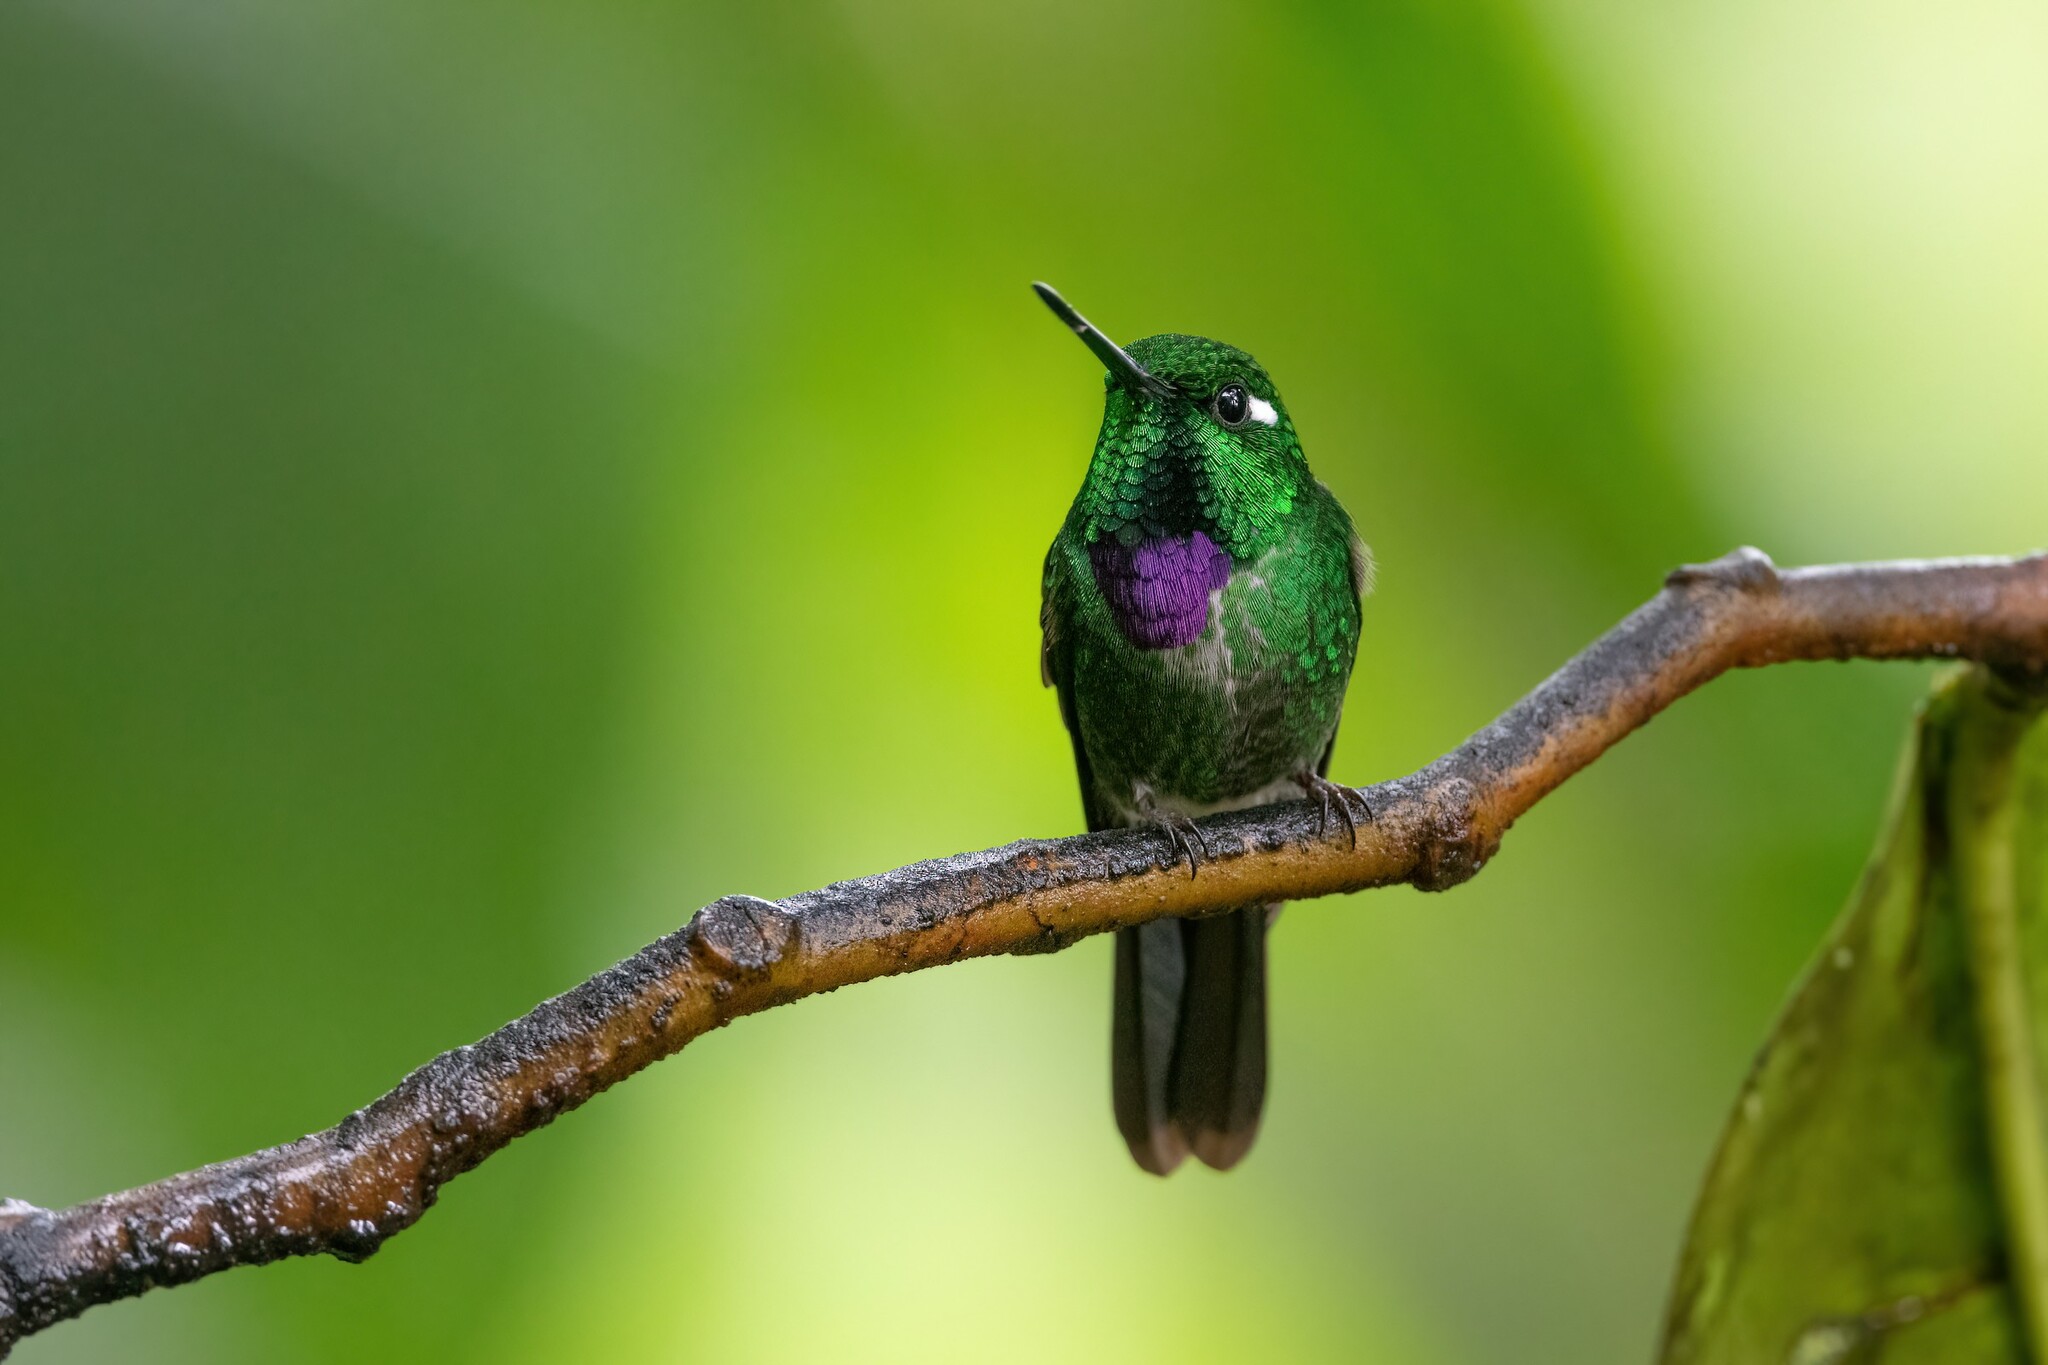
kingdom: Animalia
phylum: Chordata
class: Aves
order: Apodiformes
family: Trochilidae
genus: Urosticte
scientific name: Urosticte benjamini
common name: Purple-bibbed whitetip
